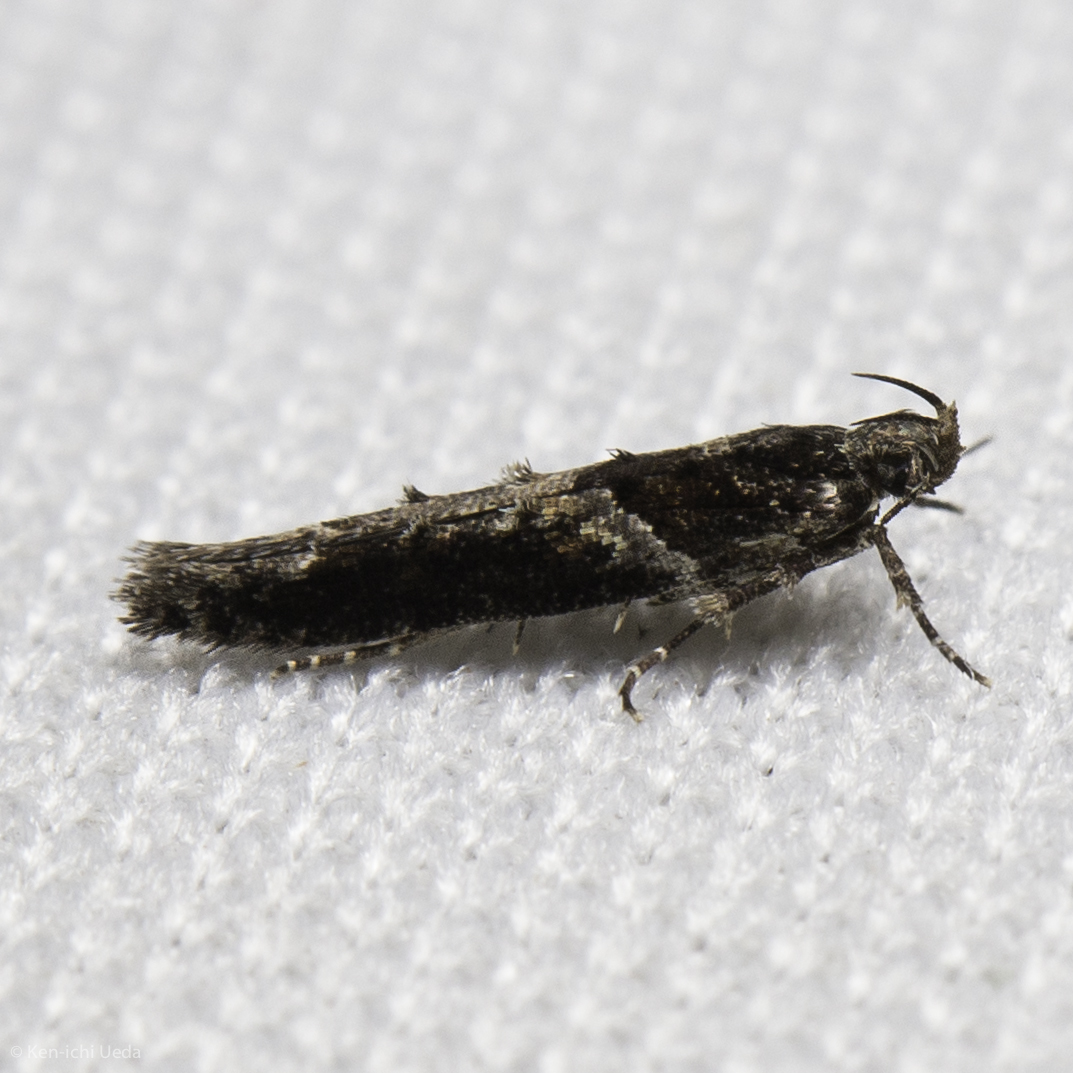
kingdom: Animalia
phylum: Arthropoda
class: Insecta
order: Lepidoptera
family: Gelechiidae
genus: Telphusa
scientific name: Telphusa sedulitella
